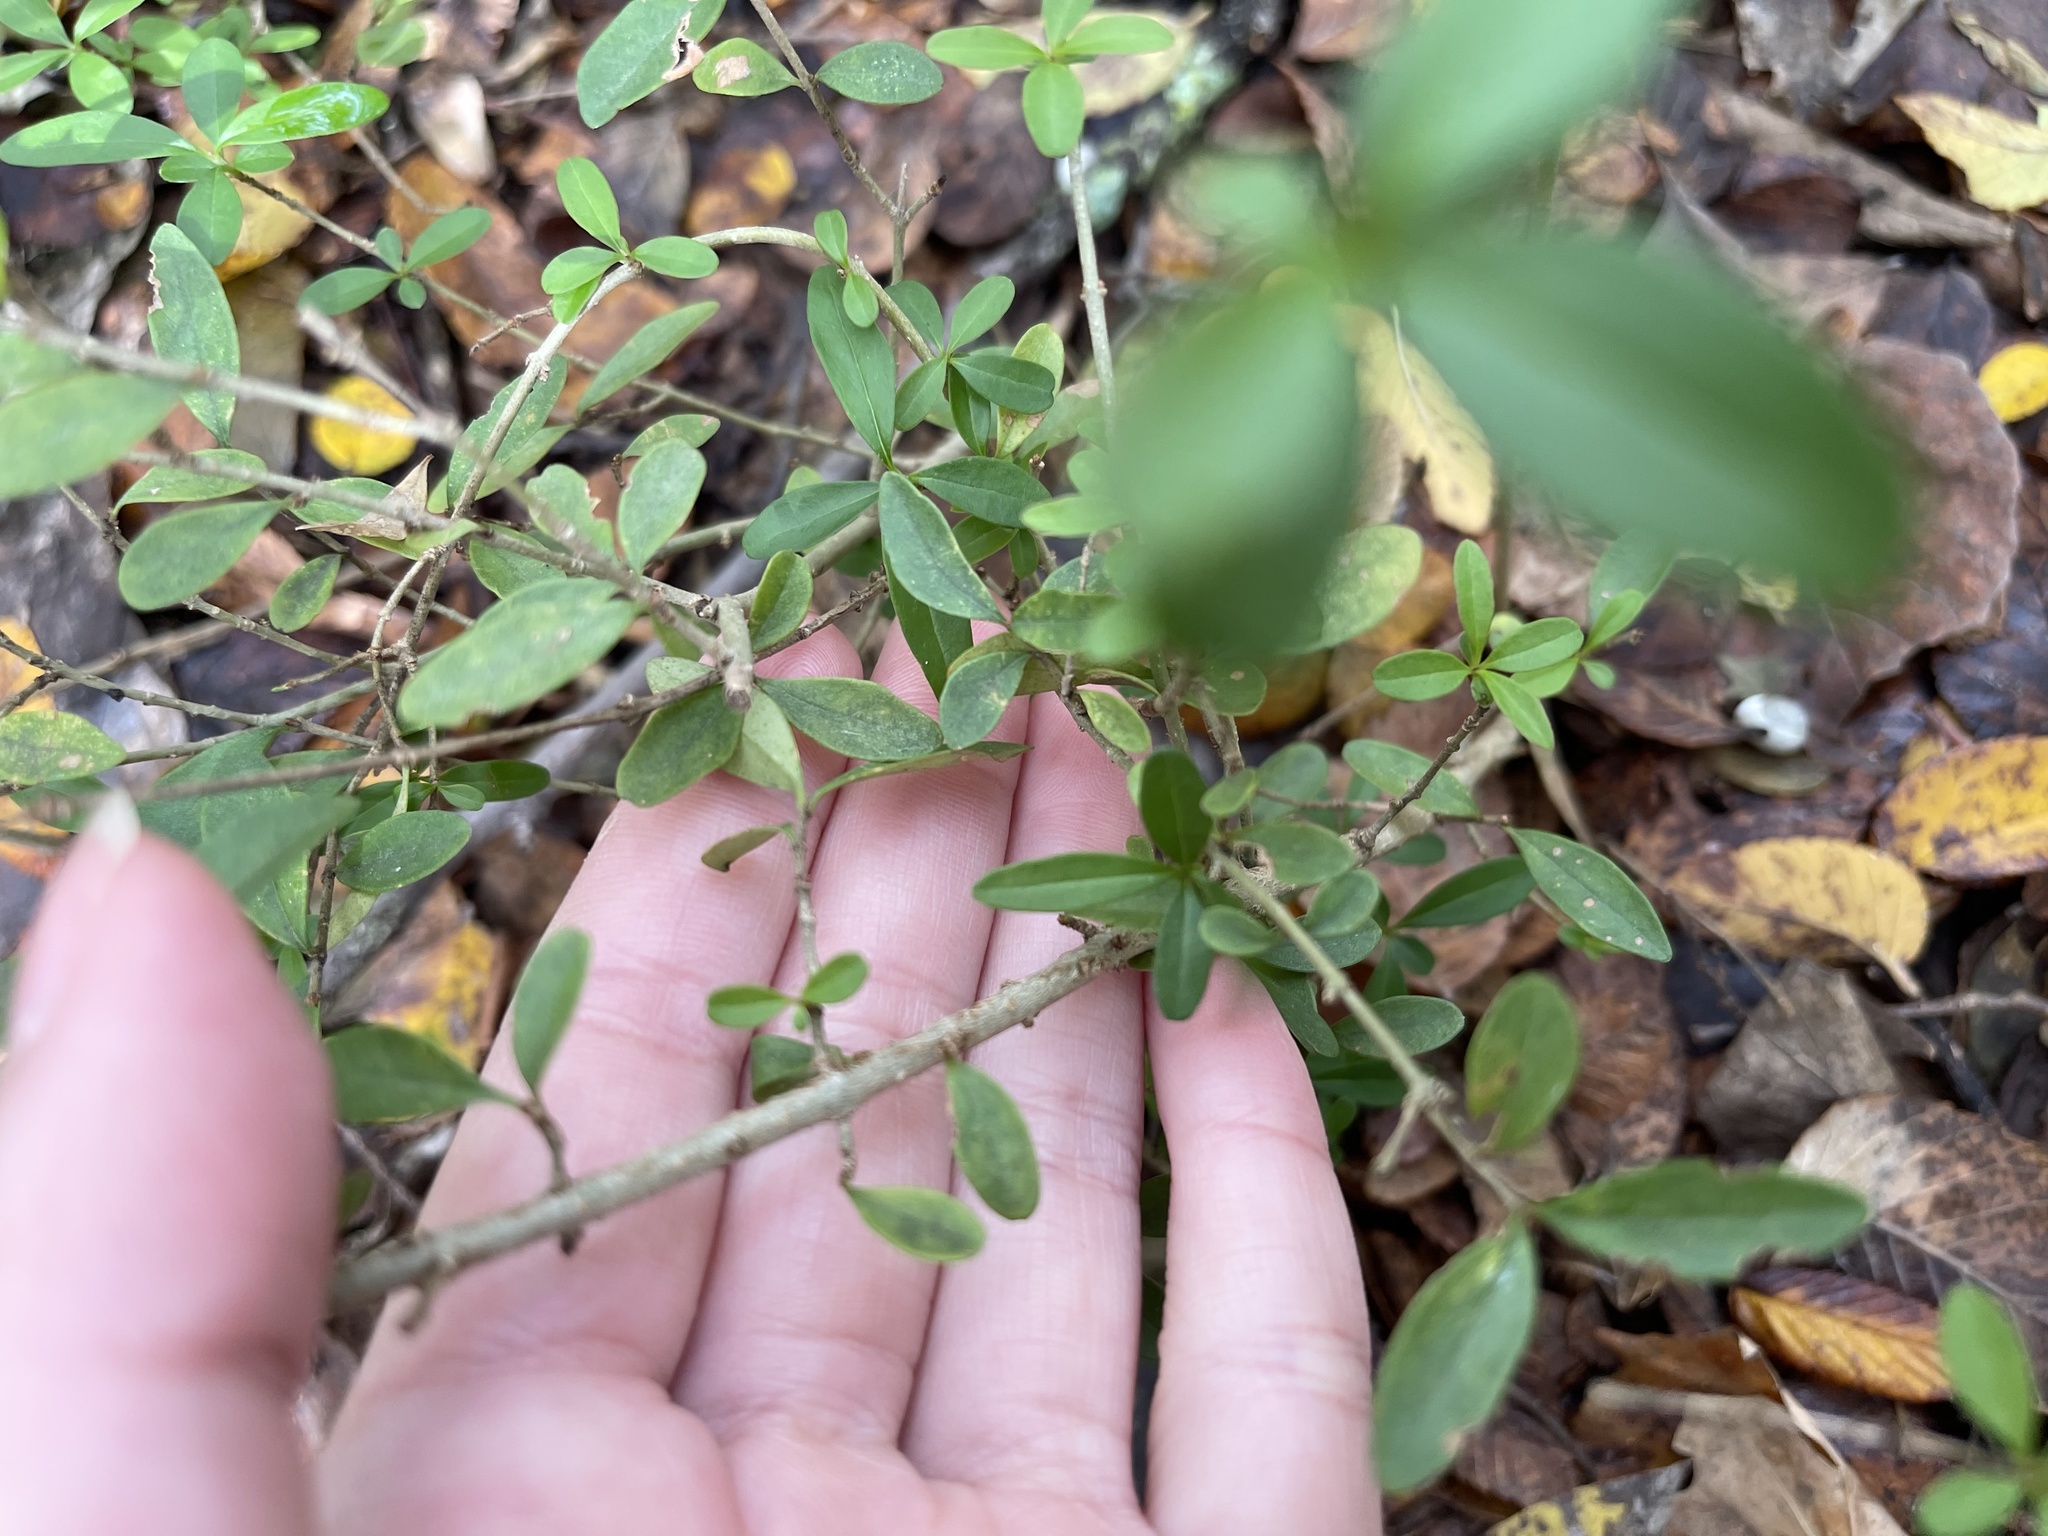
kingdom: Plantae
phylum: Tracheophyta
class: Magnoliopsida
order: Lamiales
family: Oleaceae
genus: Ligustrum
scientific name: Ligustrum quihoui
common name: Waxyleaf privet
